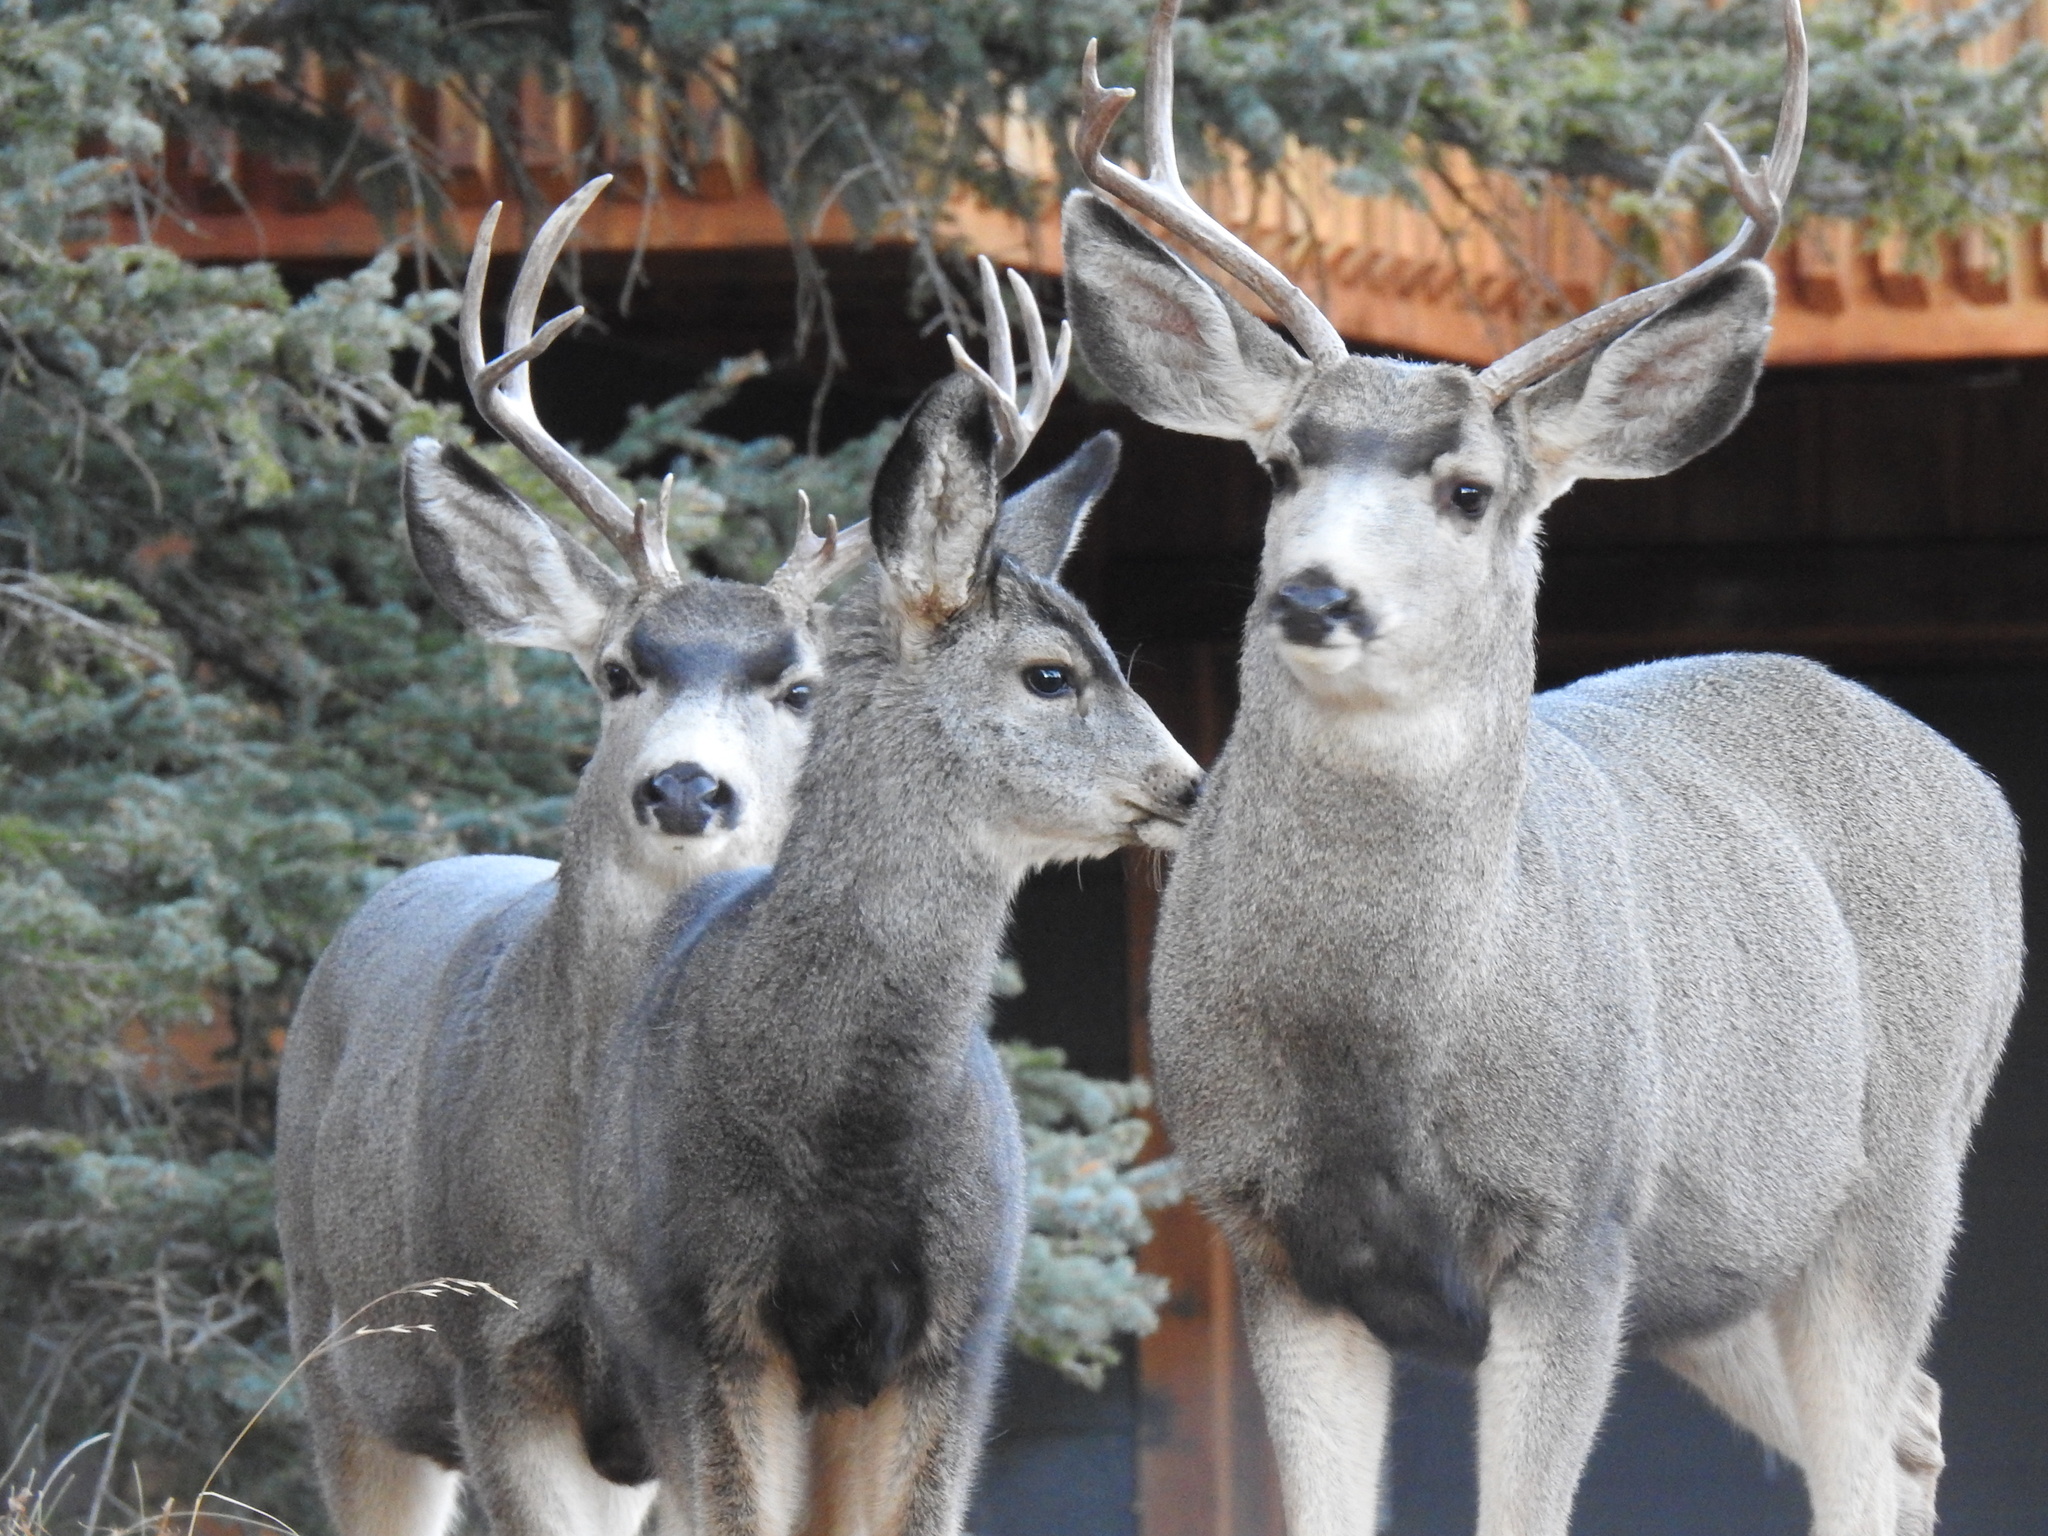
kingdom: Animalia
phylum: Chordata
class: Mammalia
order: Artiodactyla
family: Cervidae
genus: Odocoileus
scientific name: Odocoileus hemionus
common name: Mule deer
